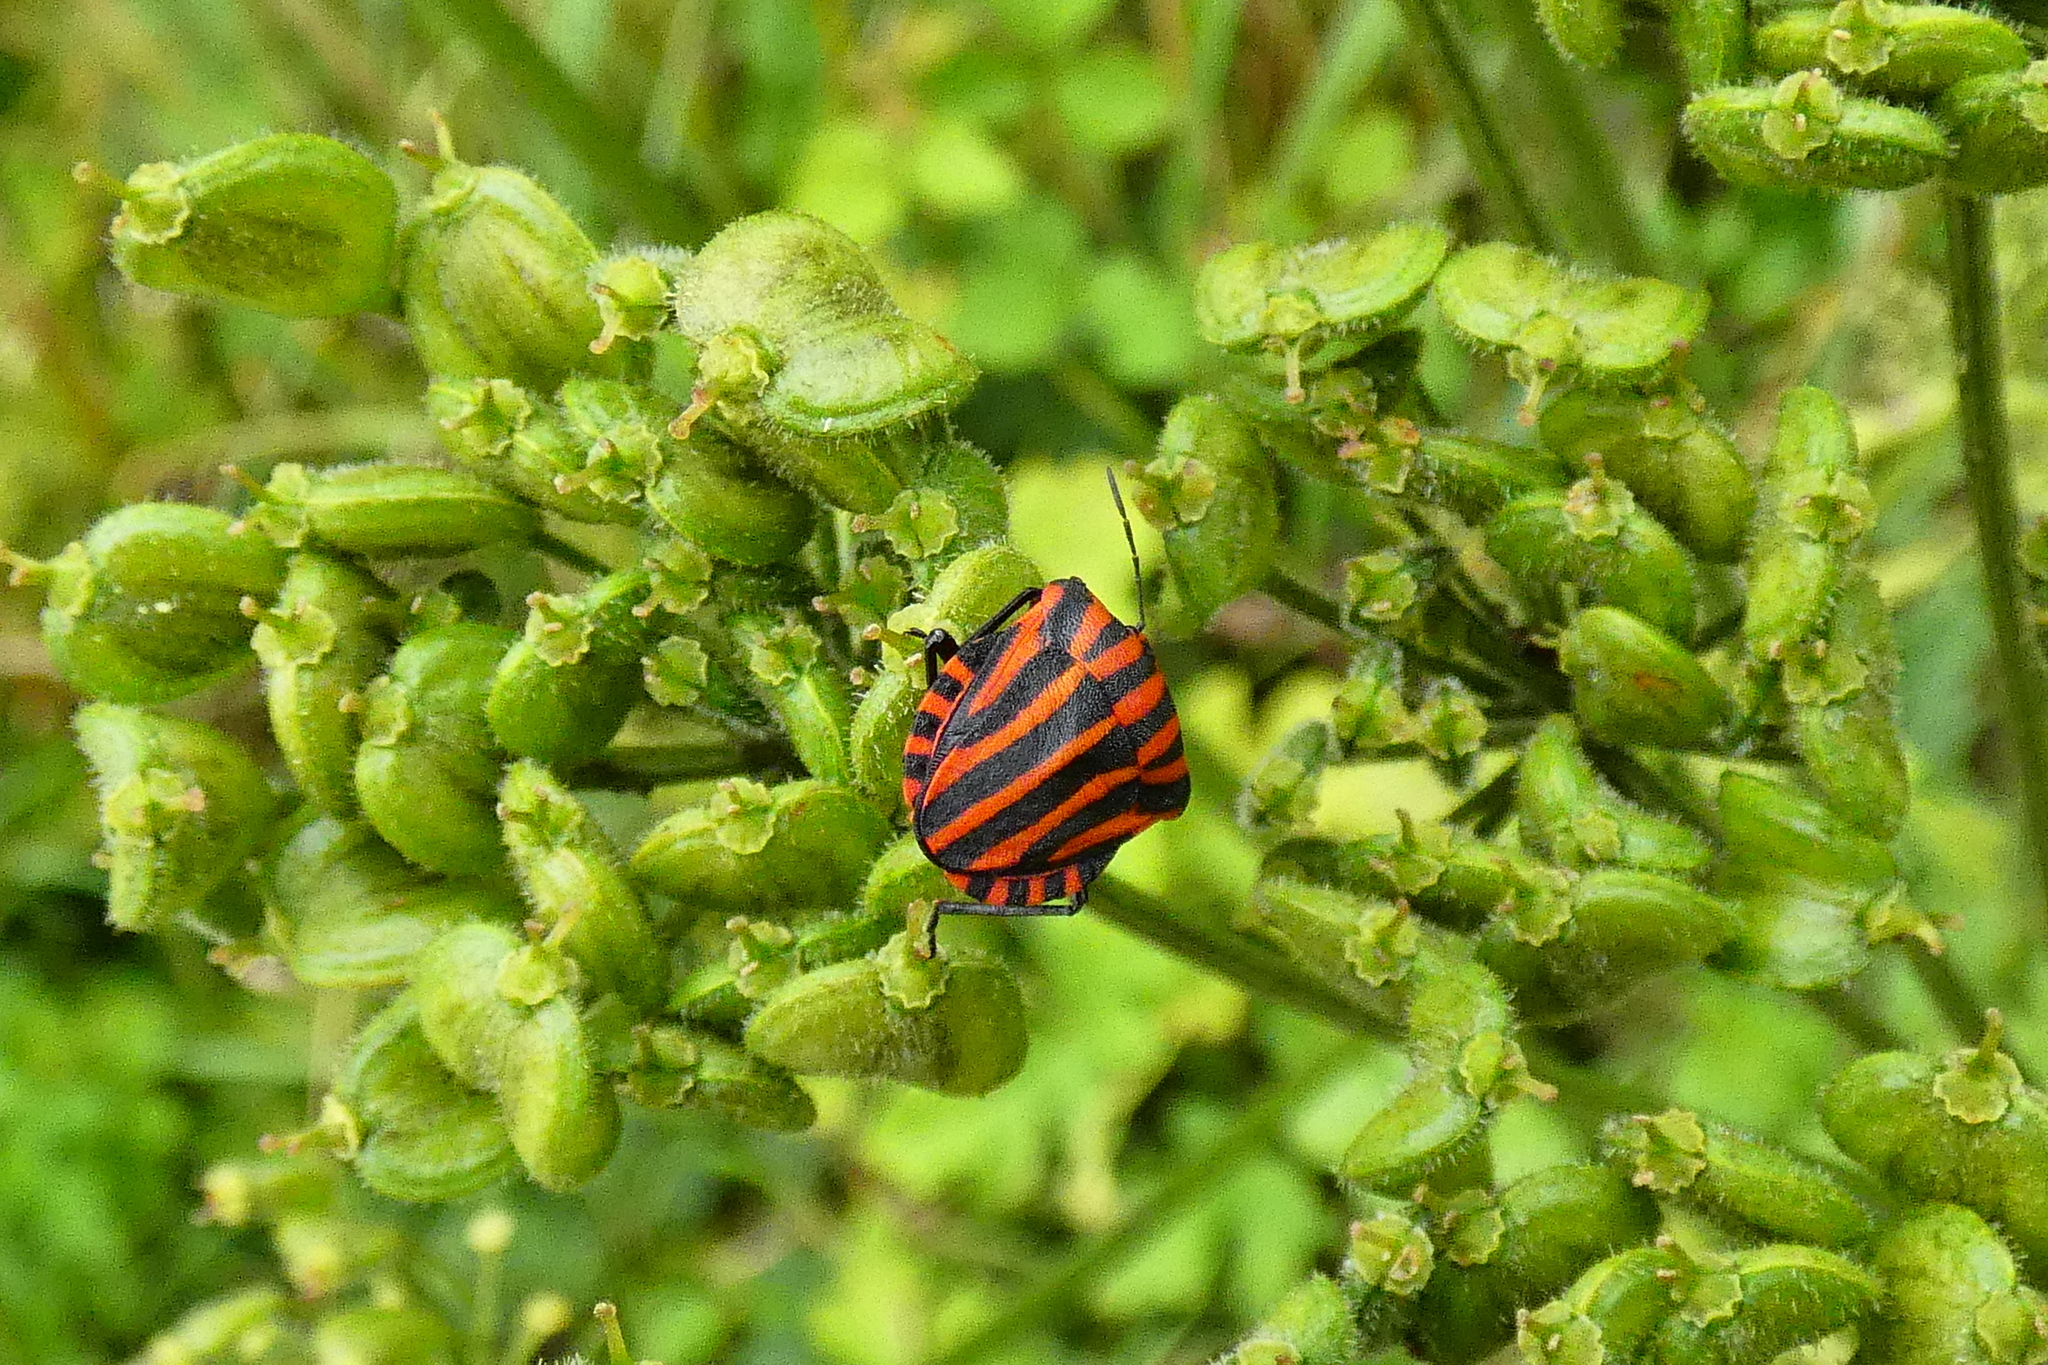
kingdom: Animalia
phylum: Arthropoda
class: Insecta
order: Hemiptera
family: Pentatomidae
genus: Graphosoma
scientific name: Graphosoma italicum
